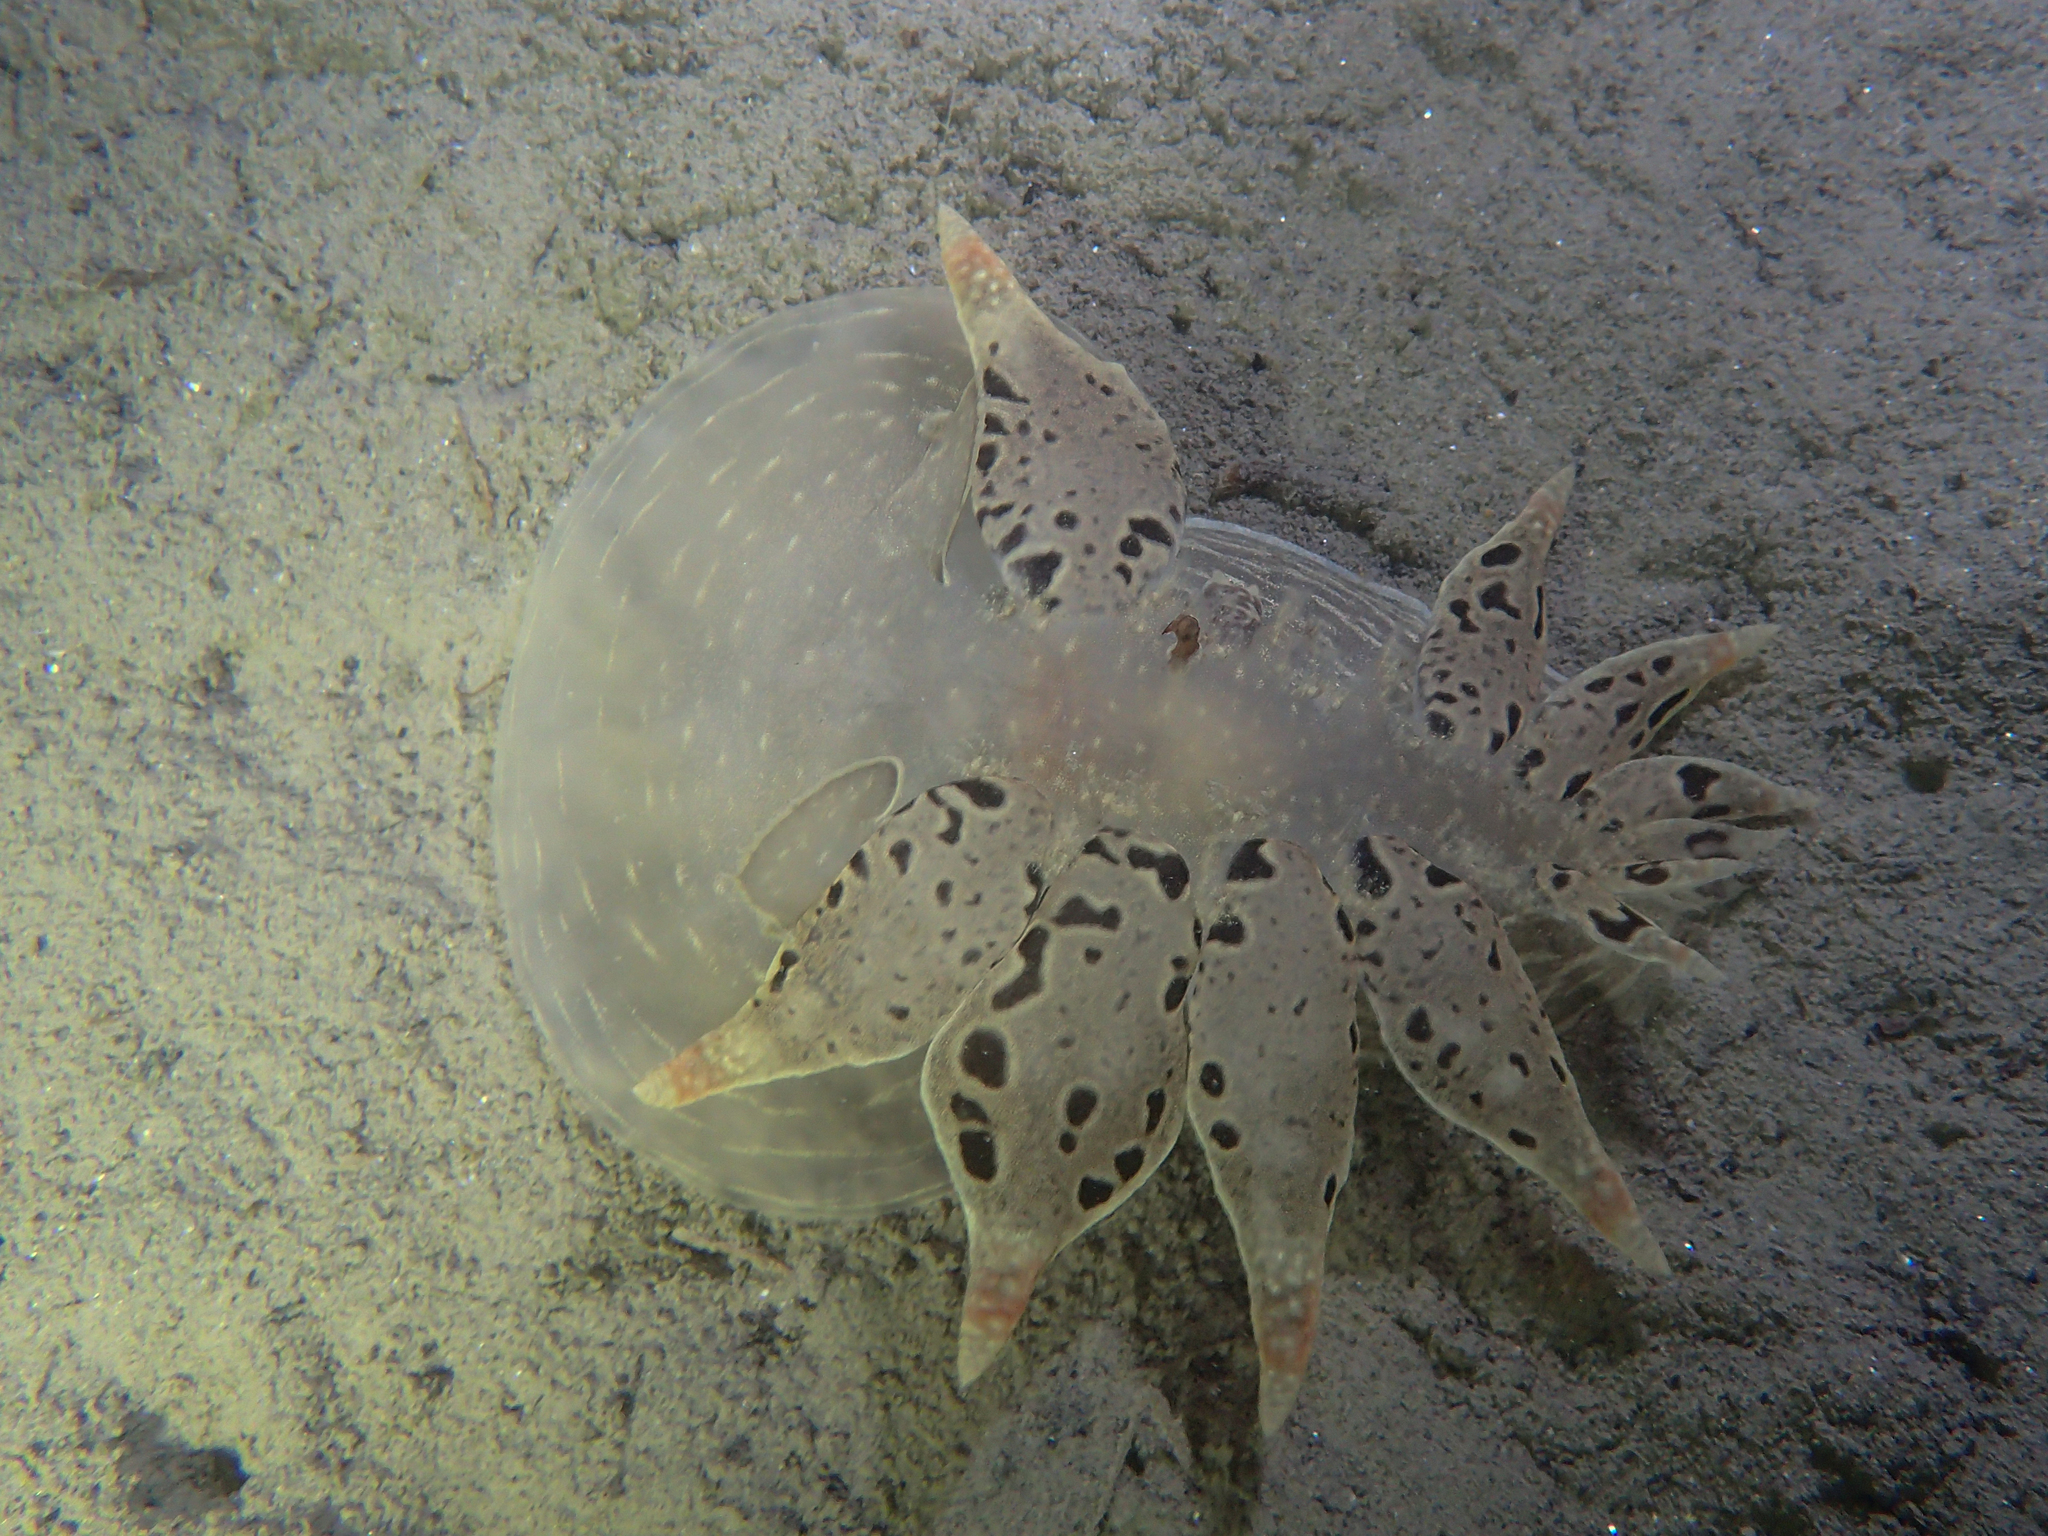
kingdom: Animalia
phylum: Mollusca
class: Gastropoda
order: Nudibranchia
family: Tethydidae
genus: Tethys
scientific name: Tethys fimbria
